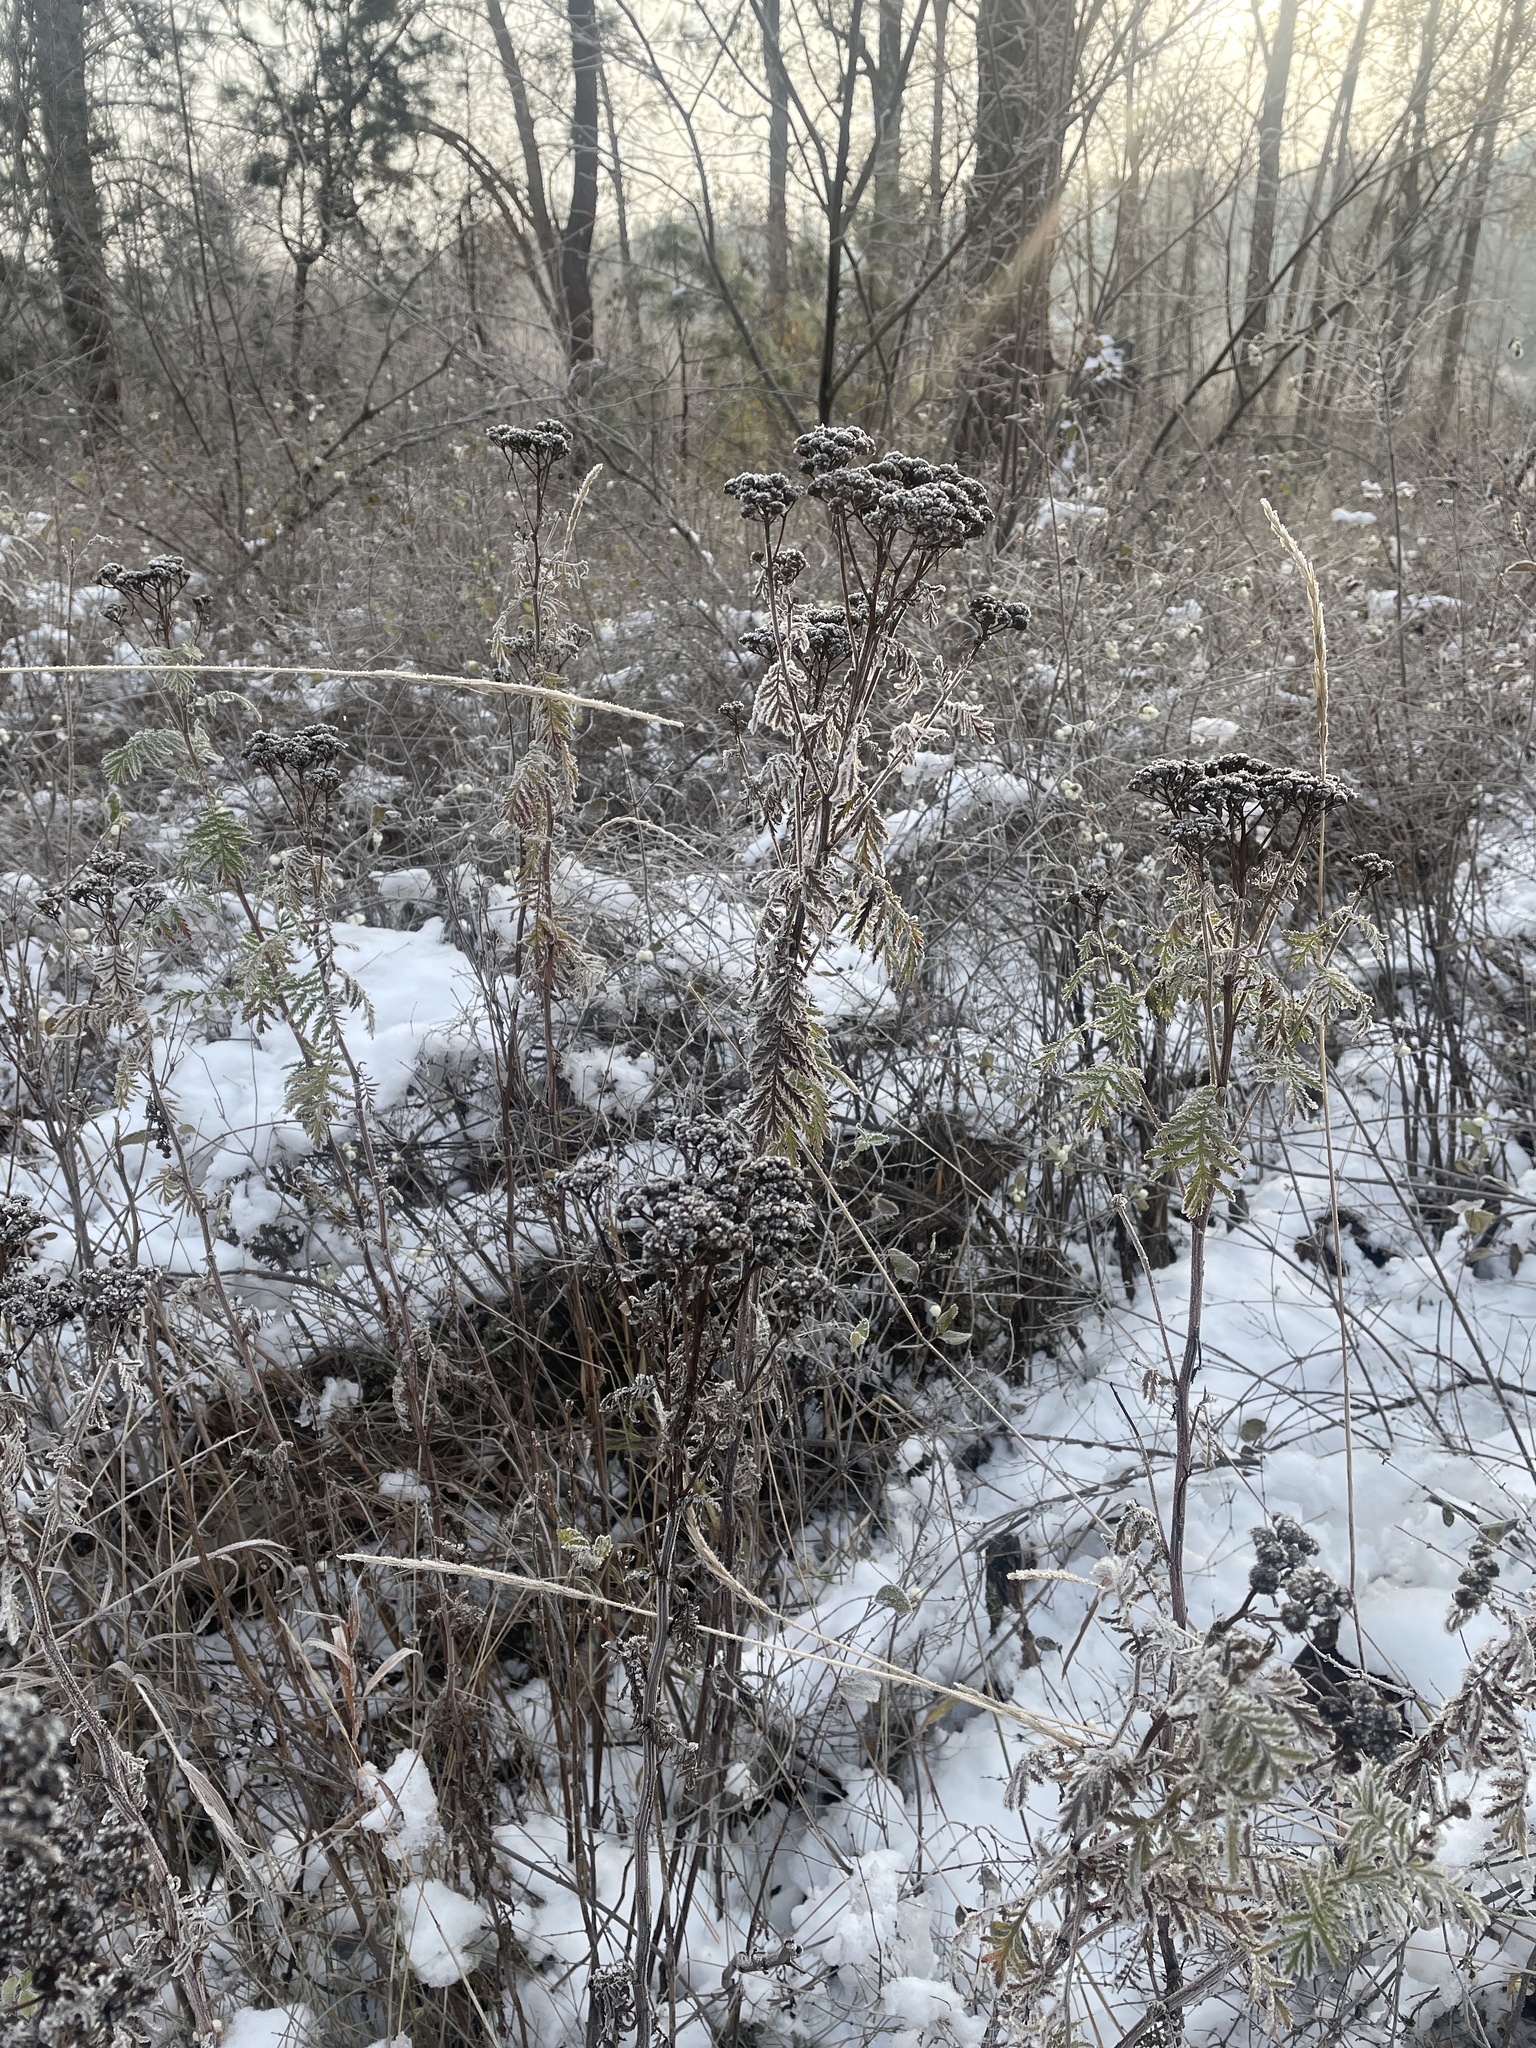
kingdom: Plantae
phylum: Tracheophyta
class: Magnoliopsida
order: Asterales
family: Asteraceae
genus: Tanacetum
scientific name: Tanacetum vulgare
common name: Common tansy
